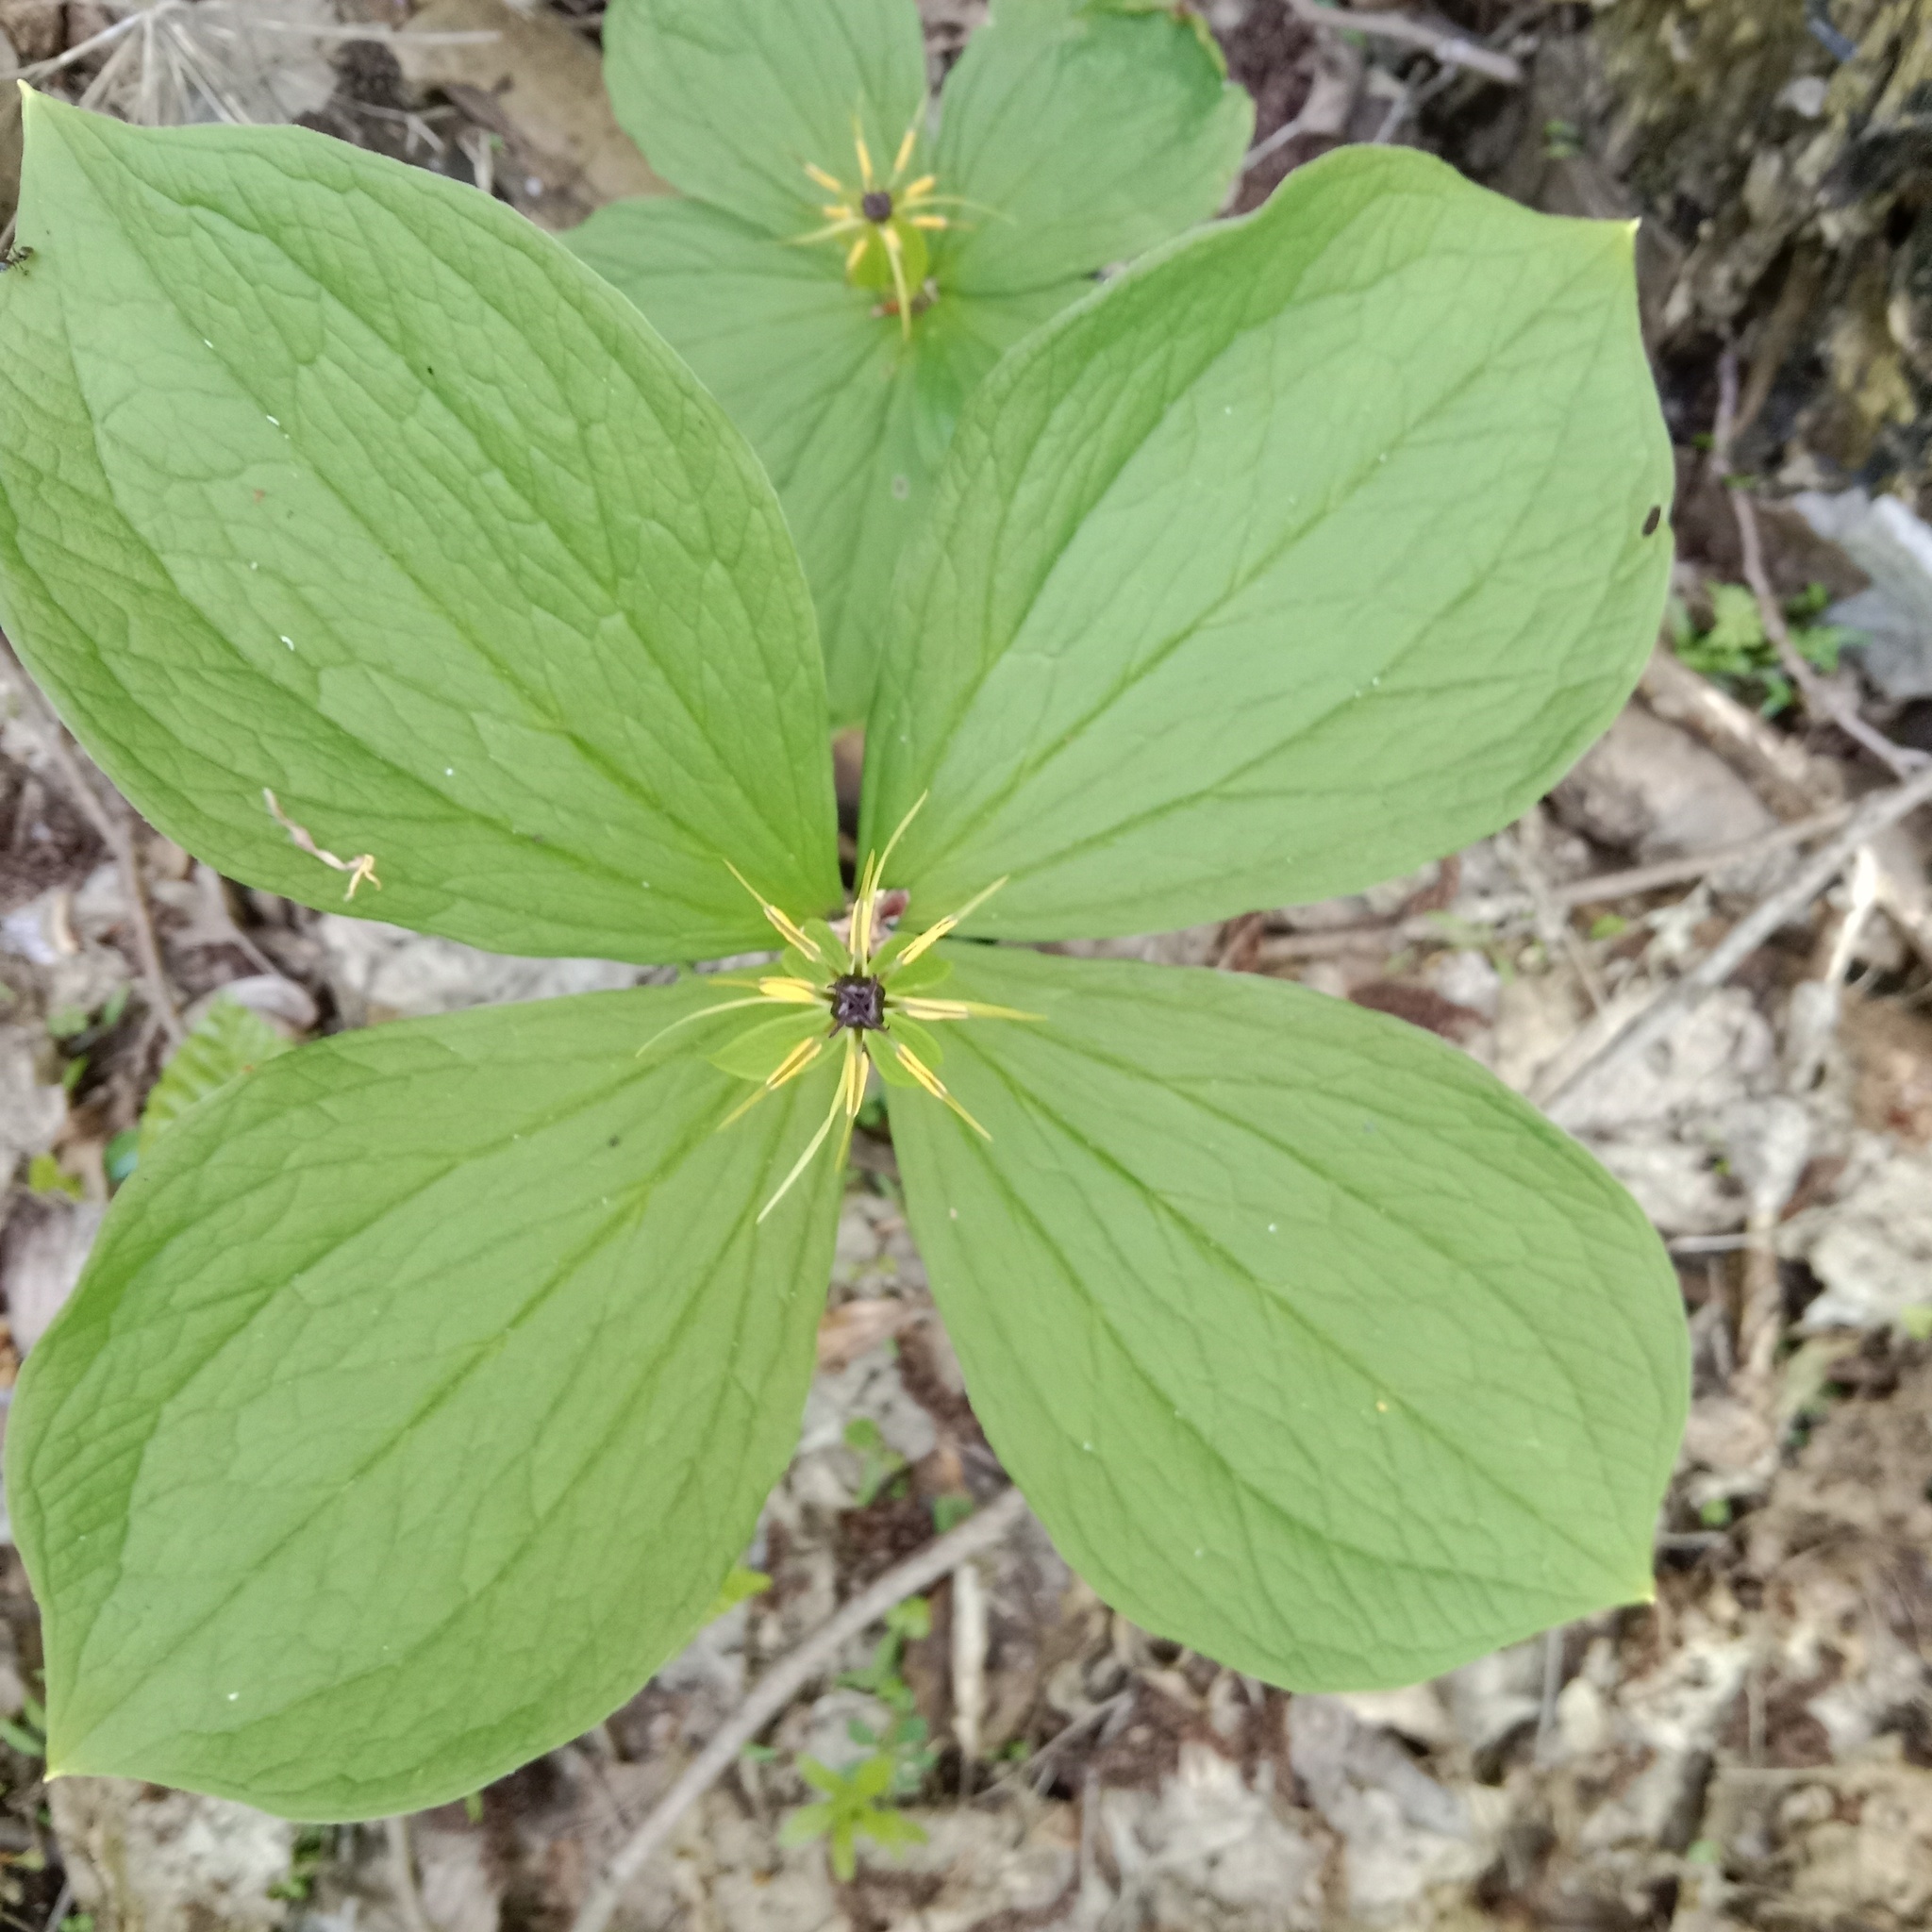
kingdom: Plantae
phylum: Tracheophyta
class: Liliopsida
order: Liliales
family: Melanthiaceae
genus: Paris
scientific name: Paris quadrifolia
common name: Herb-paris
